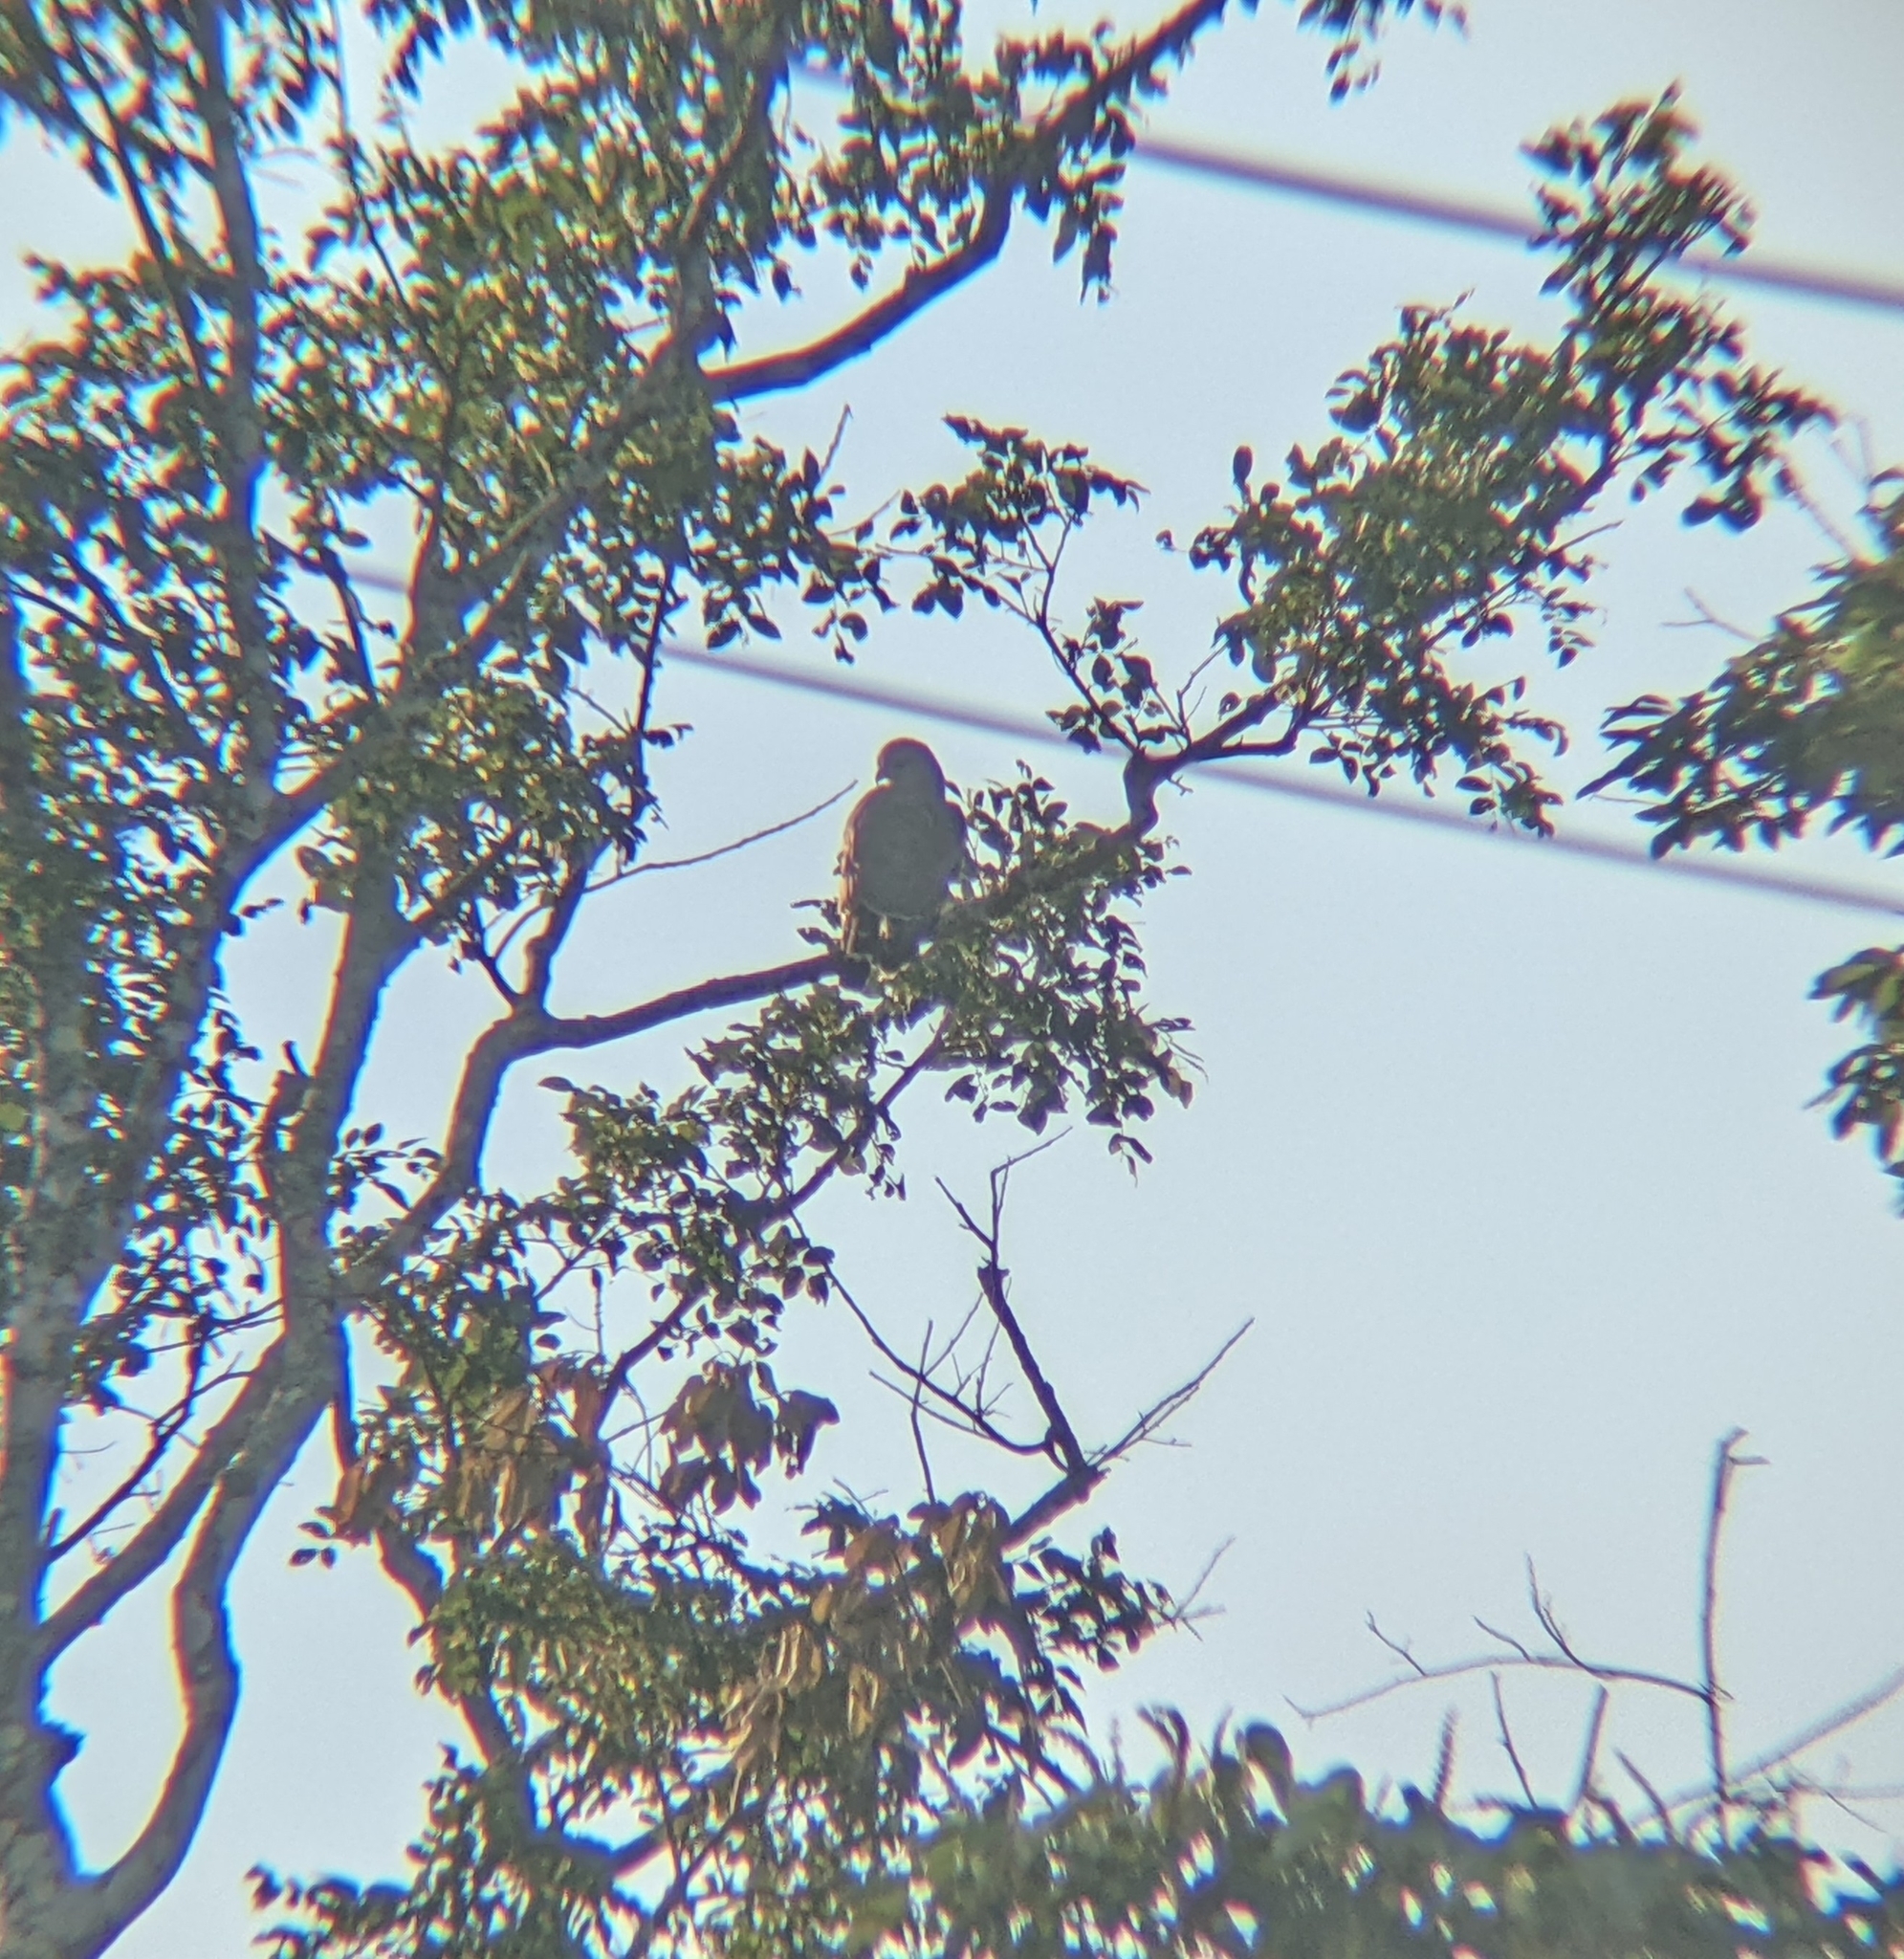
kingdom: Animalia
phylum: Chordata
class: Aves
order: Accipitriformes
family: Accipitridae
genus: Buteo
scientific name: Buteo nitidus
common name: Grey-lined hawk
